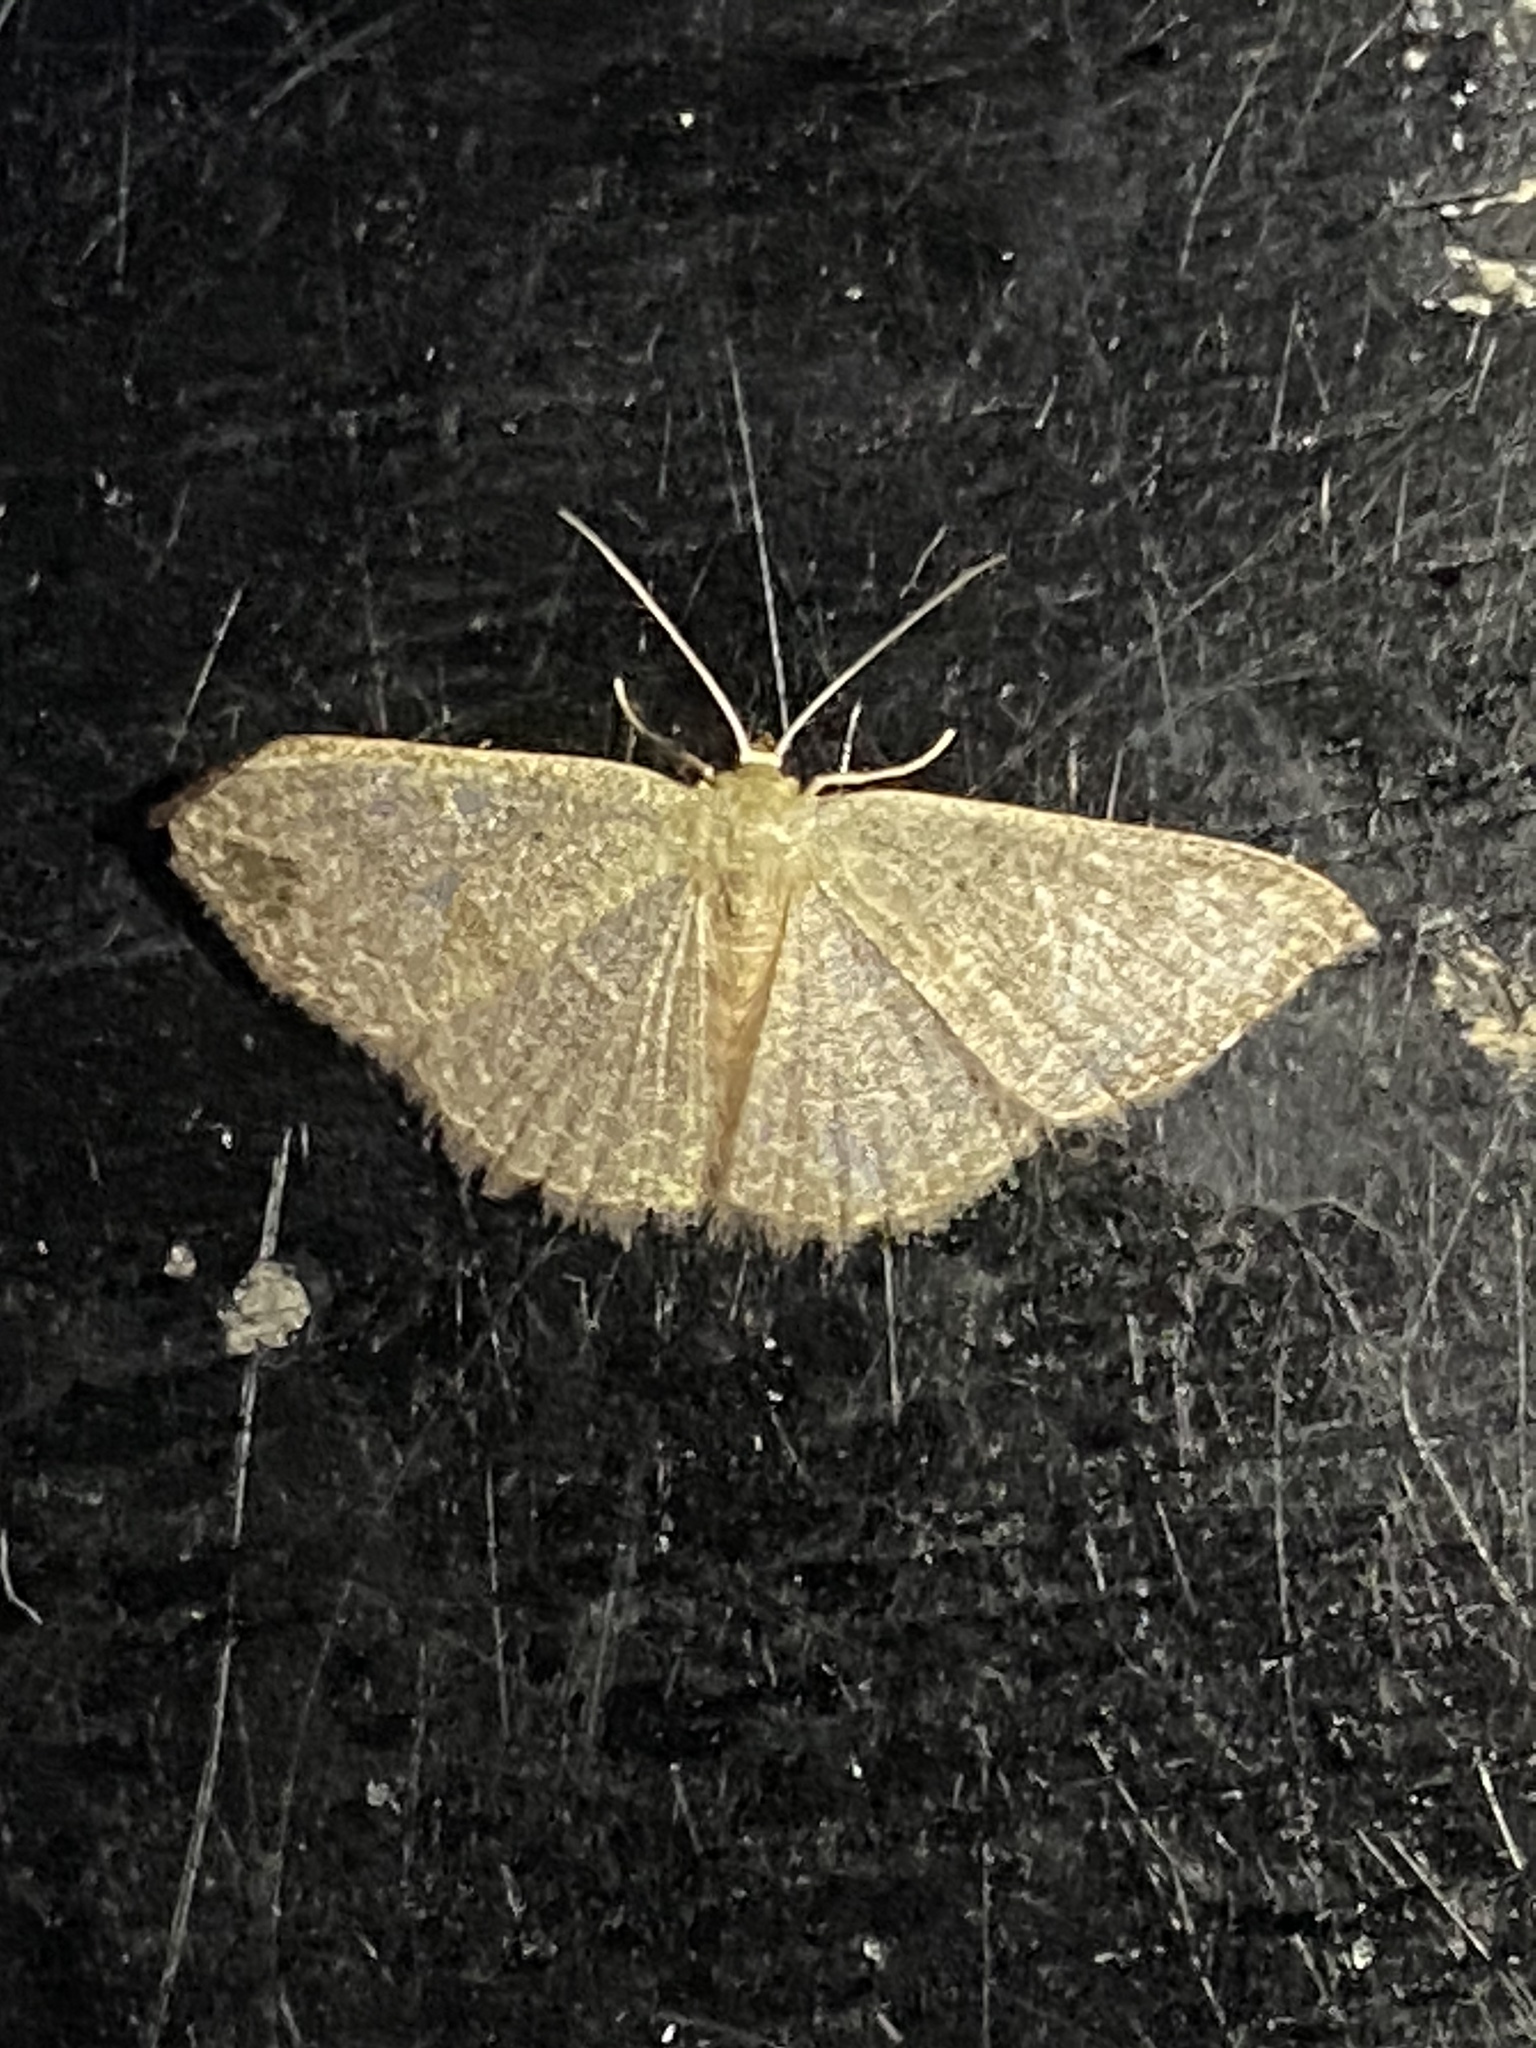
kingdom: Animalia
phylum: Arthropoda
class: Insecta
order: Lepidoptera
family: Geometridae
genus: Pleuroprucha
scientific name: Pleuroprucha insulsaria
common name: Common tan wave
